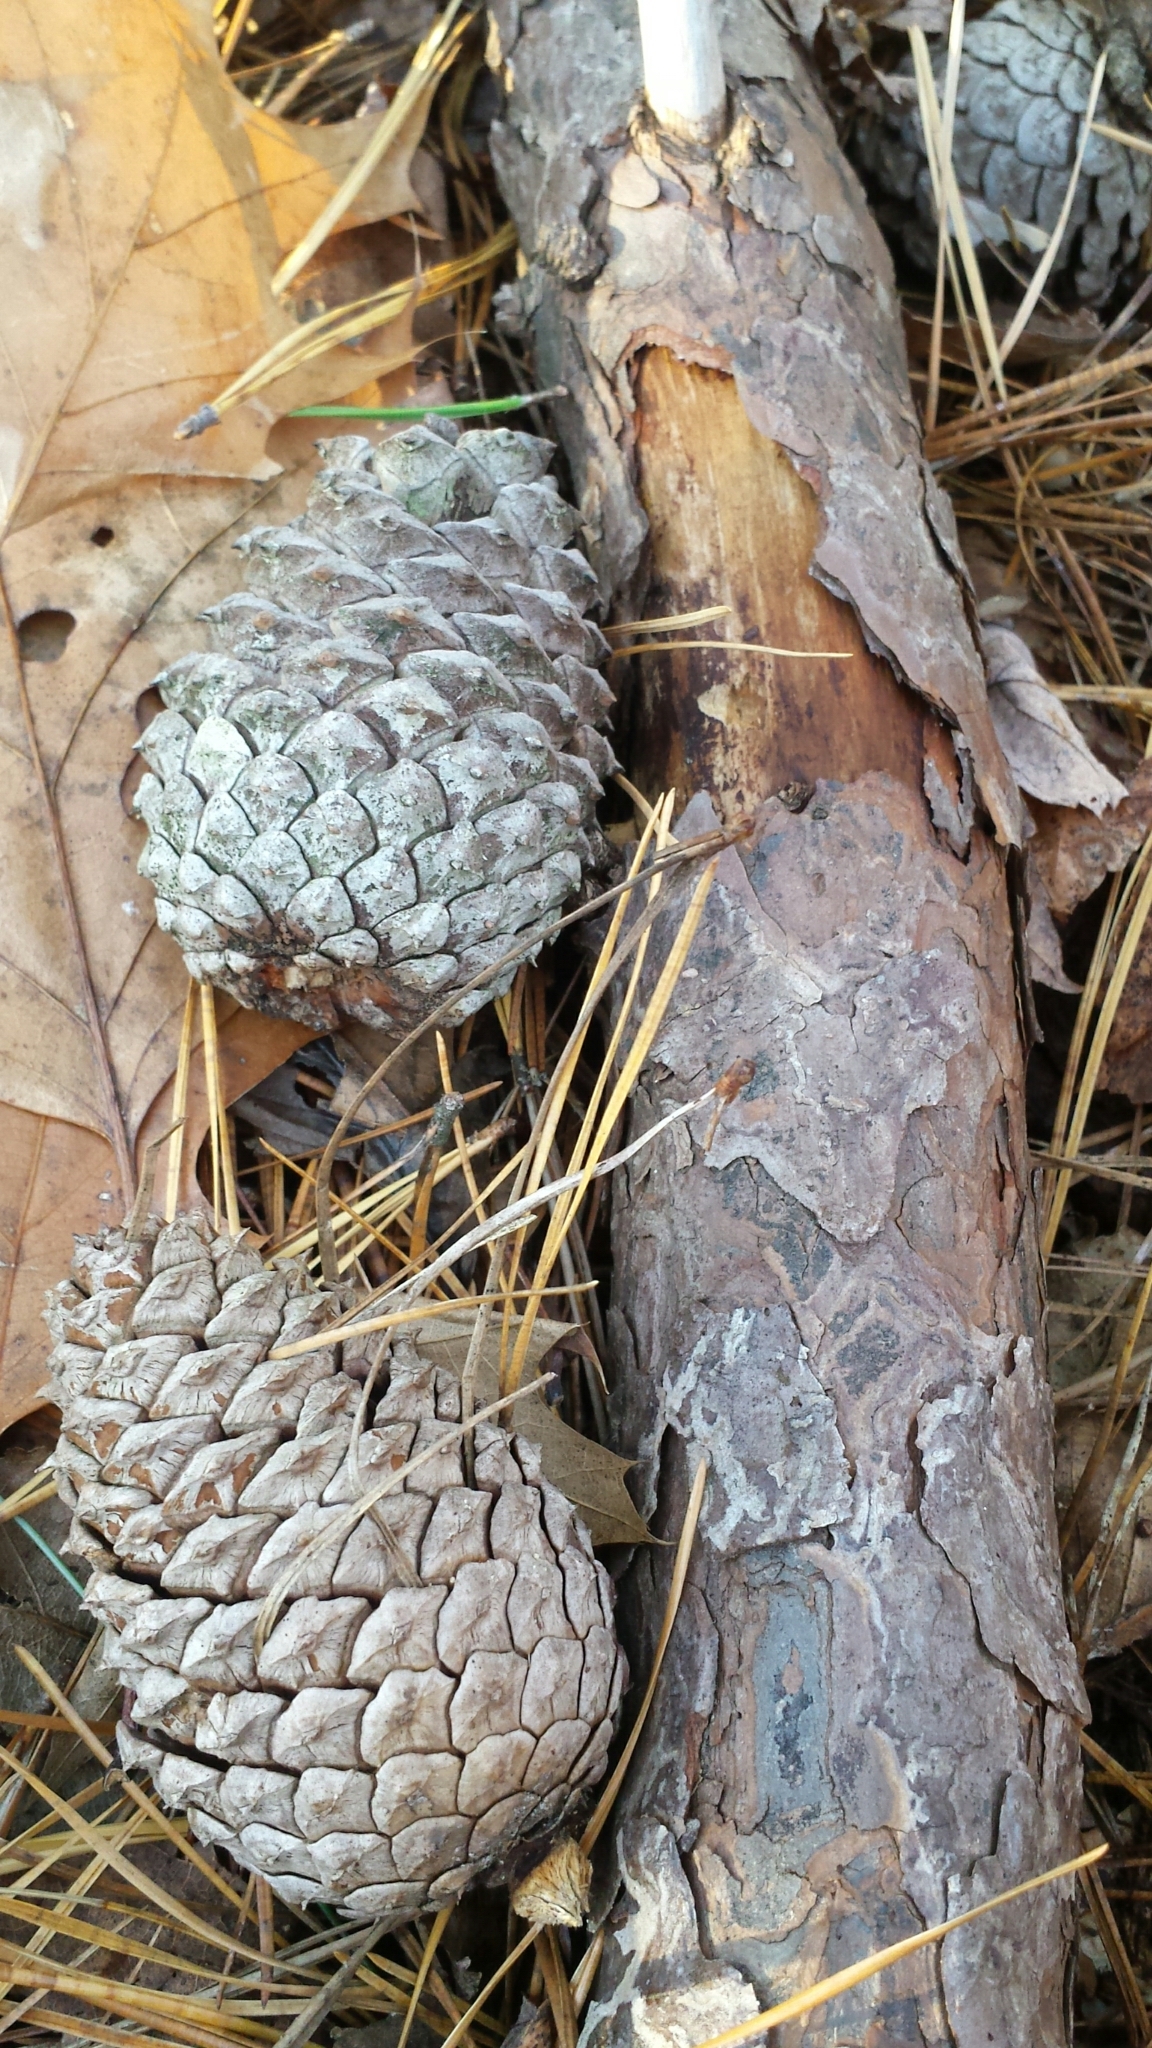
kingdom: Plantae
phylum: Tracheophyta
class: Pinopsida
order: Pinales
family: Pinaceae
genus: Pinus
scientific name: Pinus rigida
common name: Pitch pine
